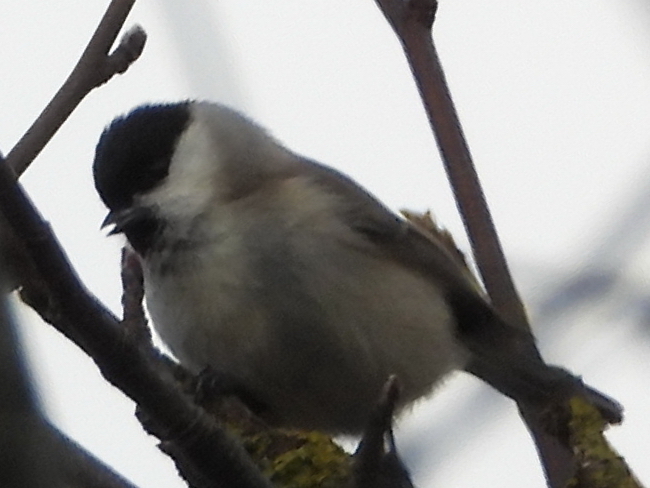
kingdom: Animalia
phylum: Chordata
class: Aves
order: Passeriformes
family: Paridae
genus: Poecile
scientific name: Poecile palustris
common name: Marsh tit
